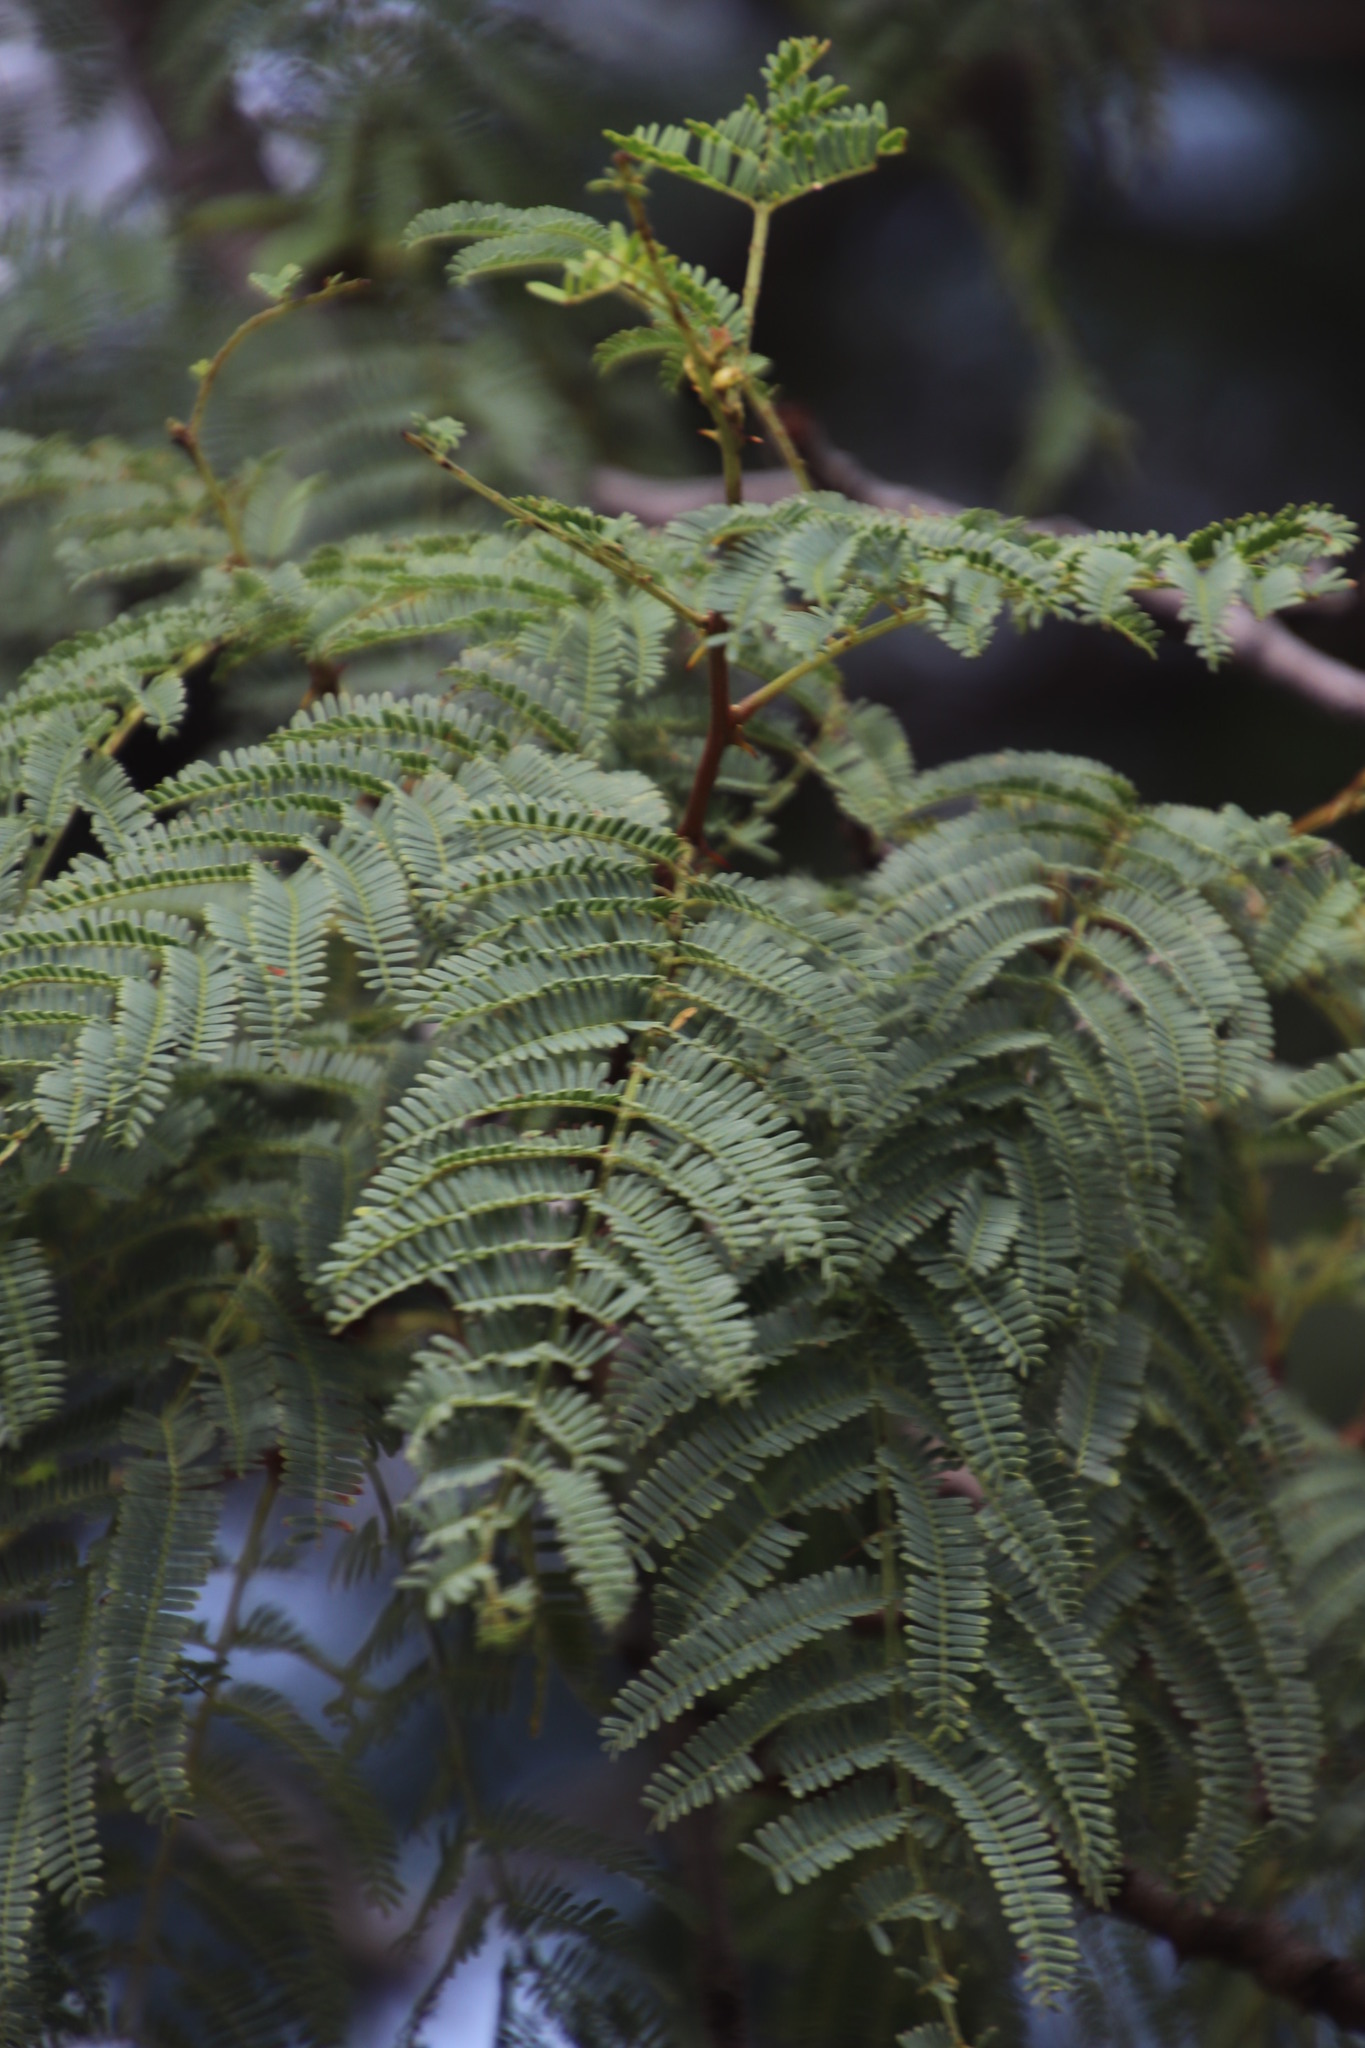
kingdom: Plantae
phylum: Tracheophyta
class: Magnoliopsida
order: Fabales
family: Fabaceae
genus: Senegalia
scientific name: Senegalia caffra
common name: Cat thorn
